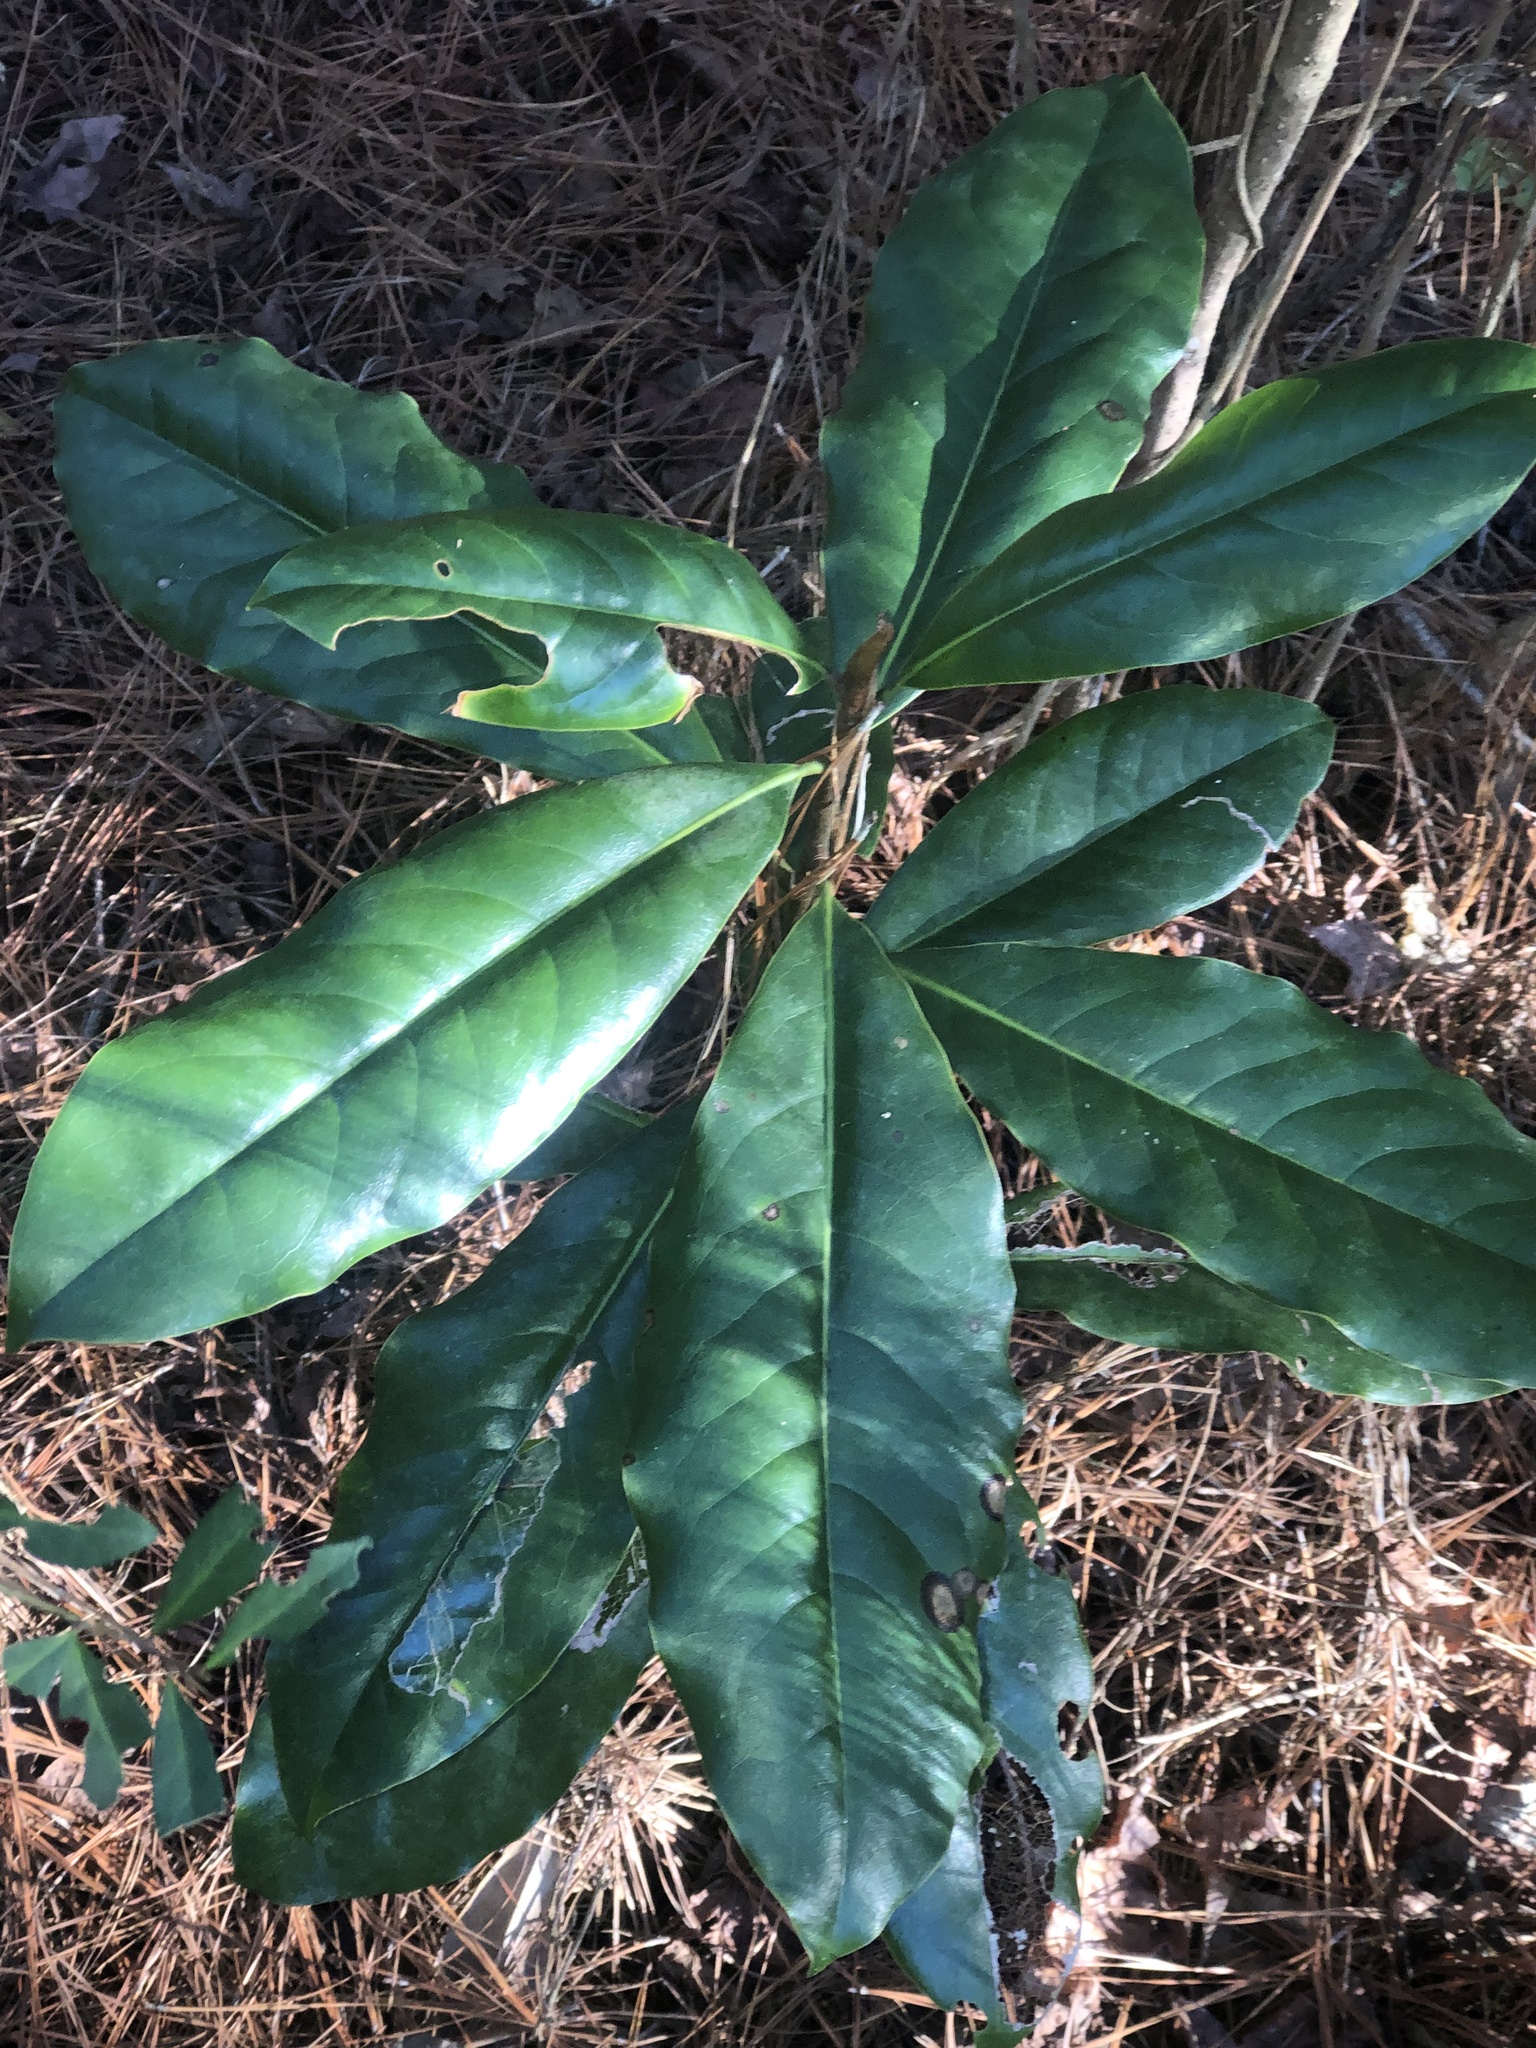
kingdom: Plantae
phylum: Tracheophyta
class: Magnoliopsida
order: Magnoliales
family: Magnoliaceae
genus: Magnolia
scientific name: Magnolia grandiflora
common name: Southern magnolia
